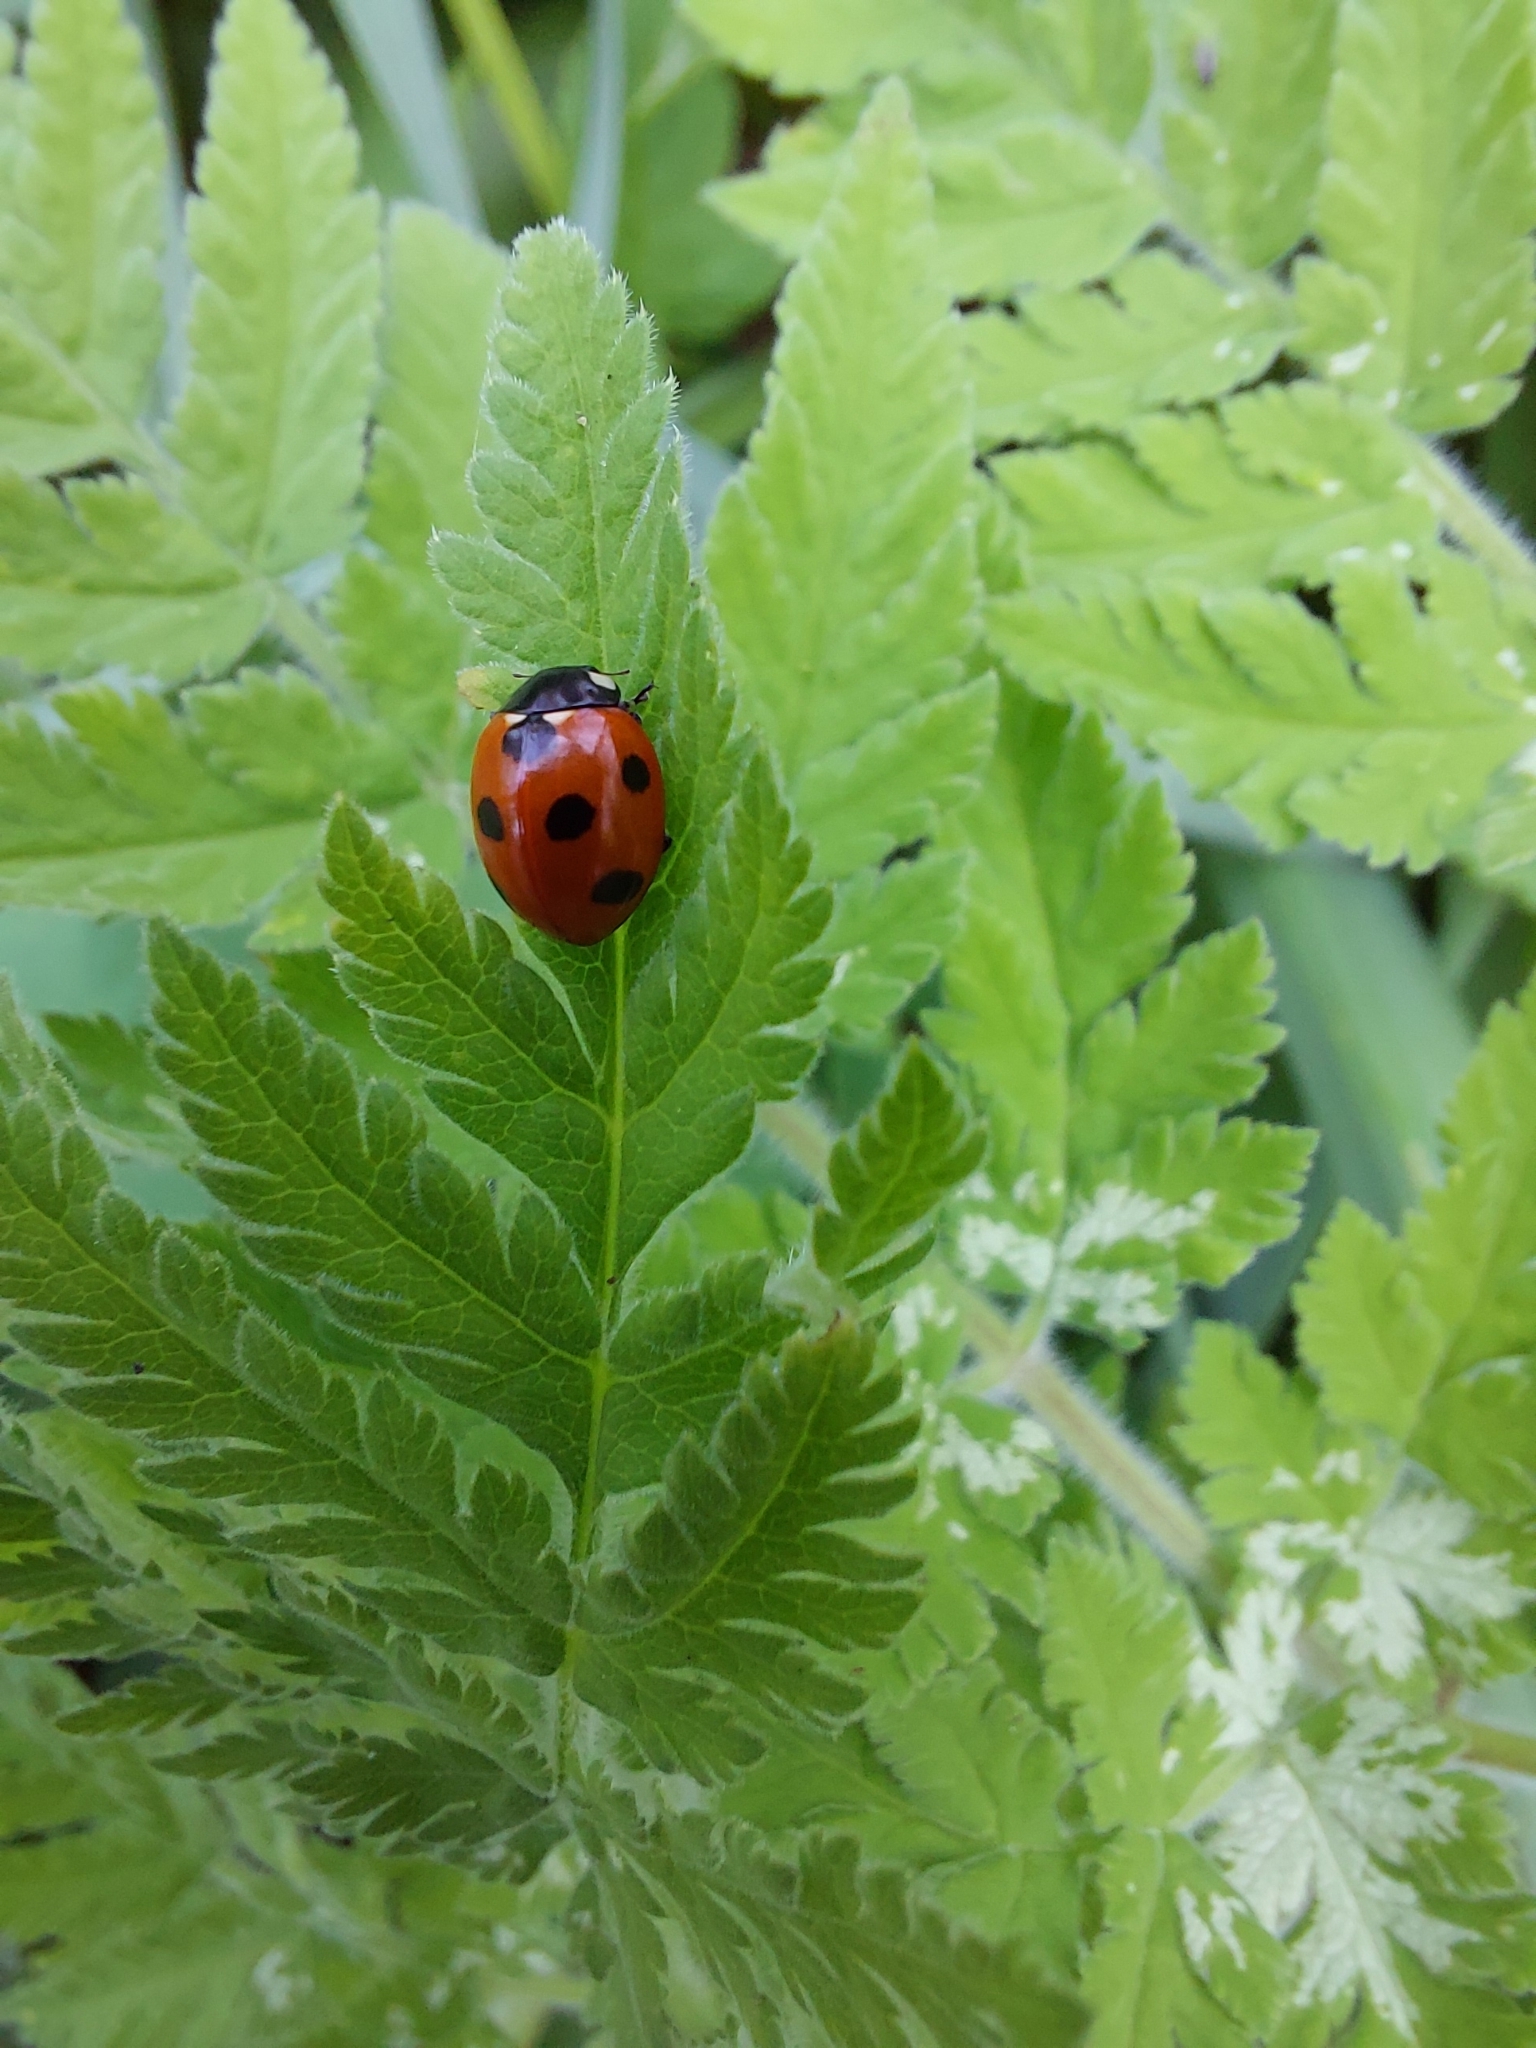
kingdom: Animalia
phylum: Arthropoda
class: Insecta
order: Coleoptera
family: Coccinellidae
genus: Coccinella
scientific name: Coccinella septempunctata
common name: Sevenspotted lady beetle
